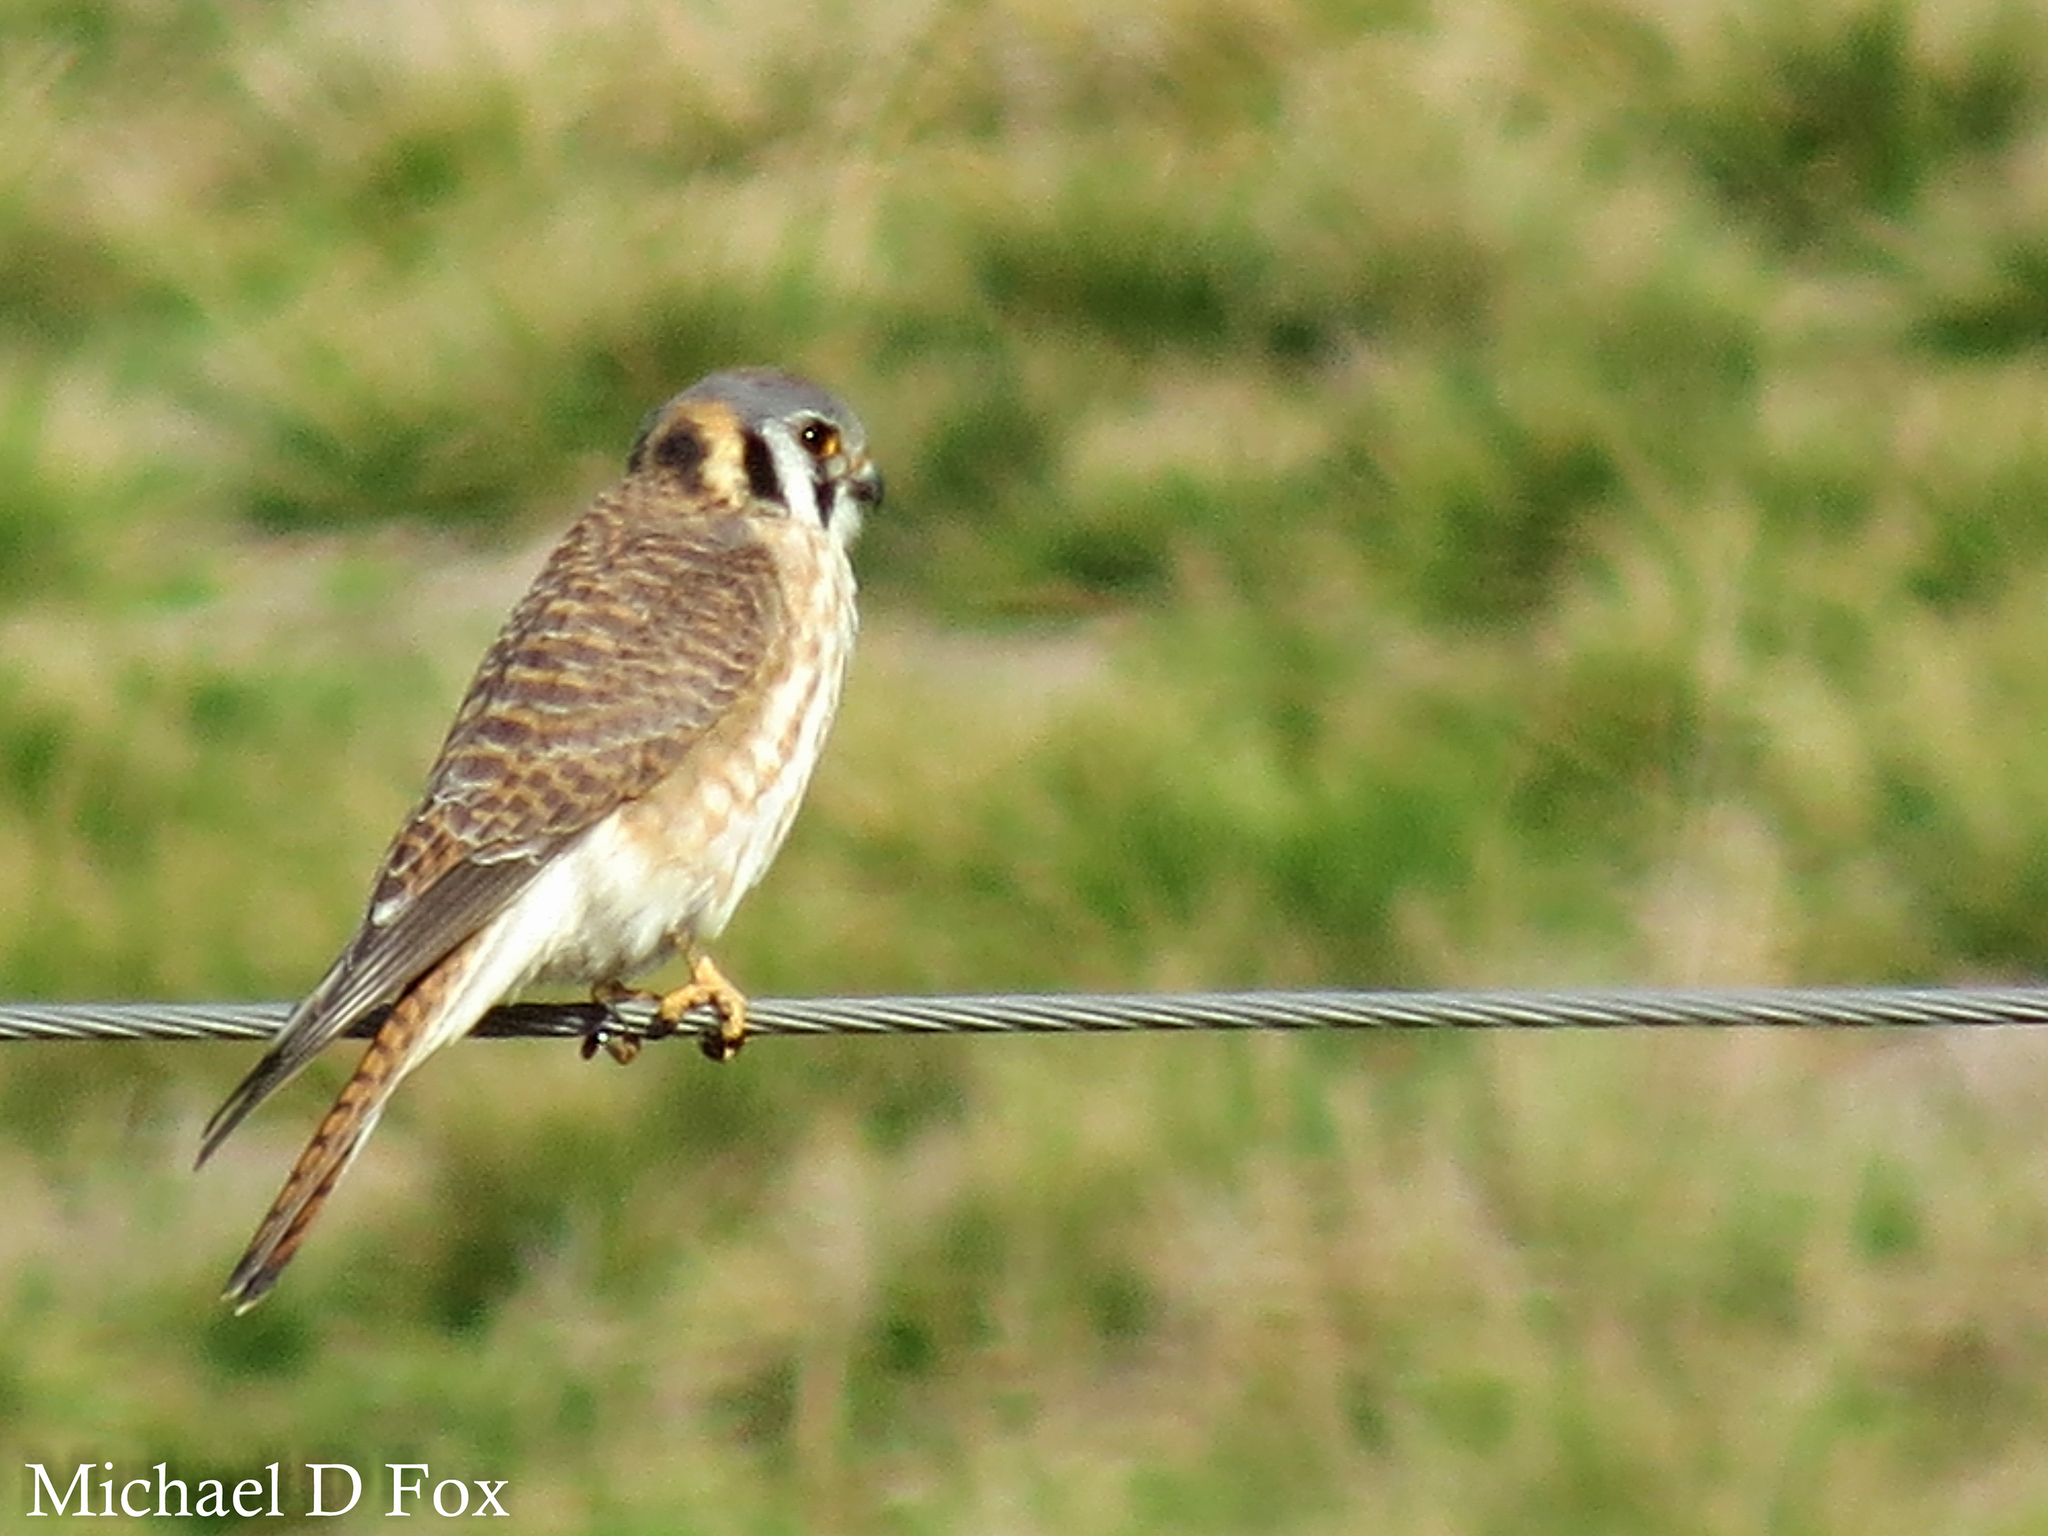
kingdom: Animalia
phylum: Chordata
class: Aves
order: Falconiformes
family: Falconidae
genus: Falco
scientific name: Falco sparverius
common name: American kestrel
